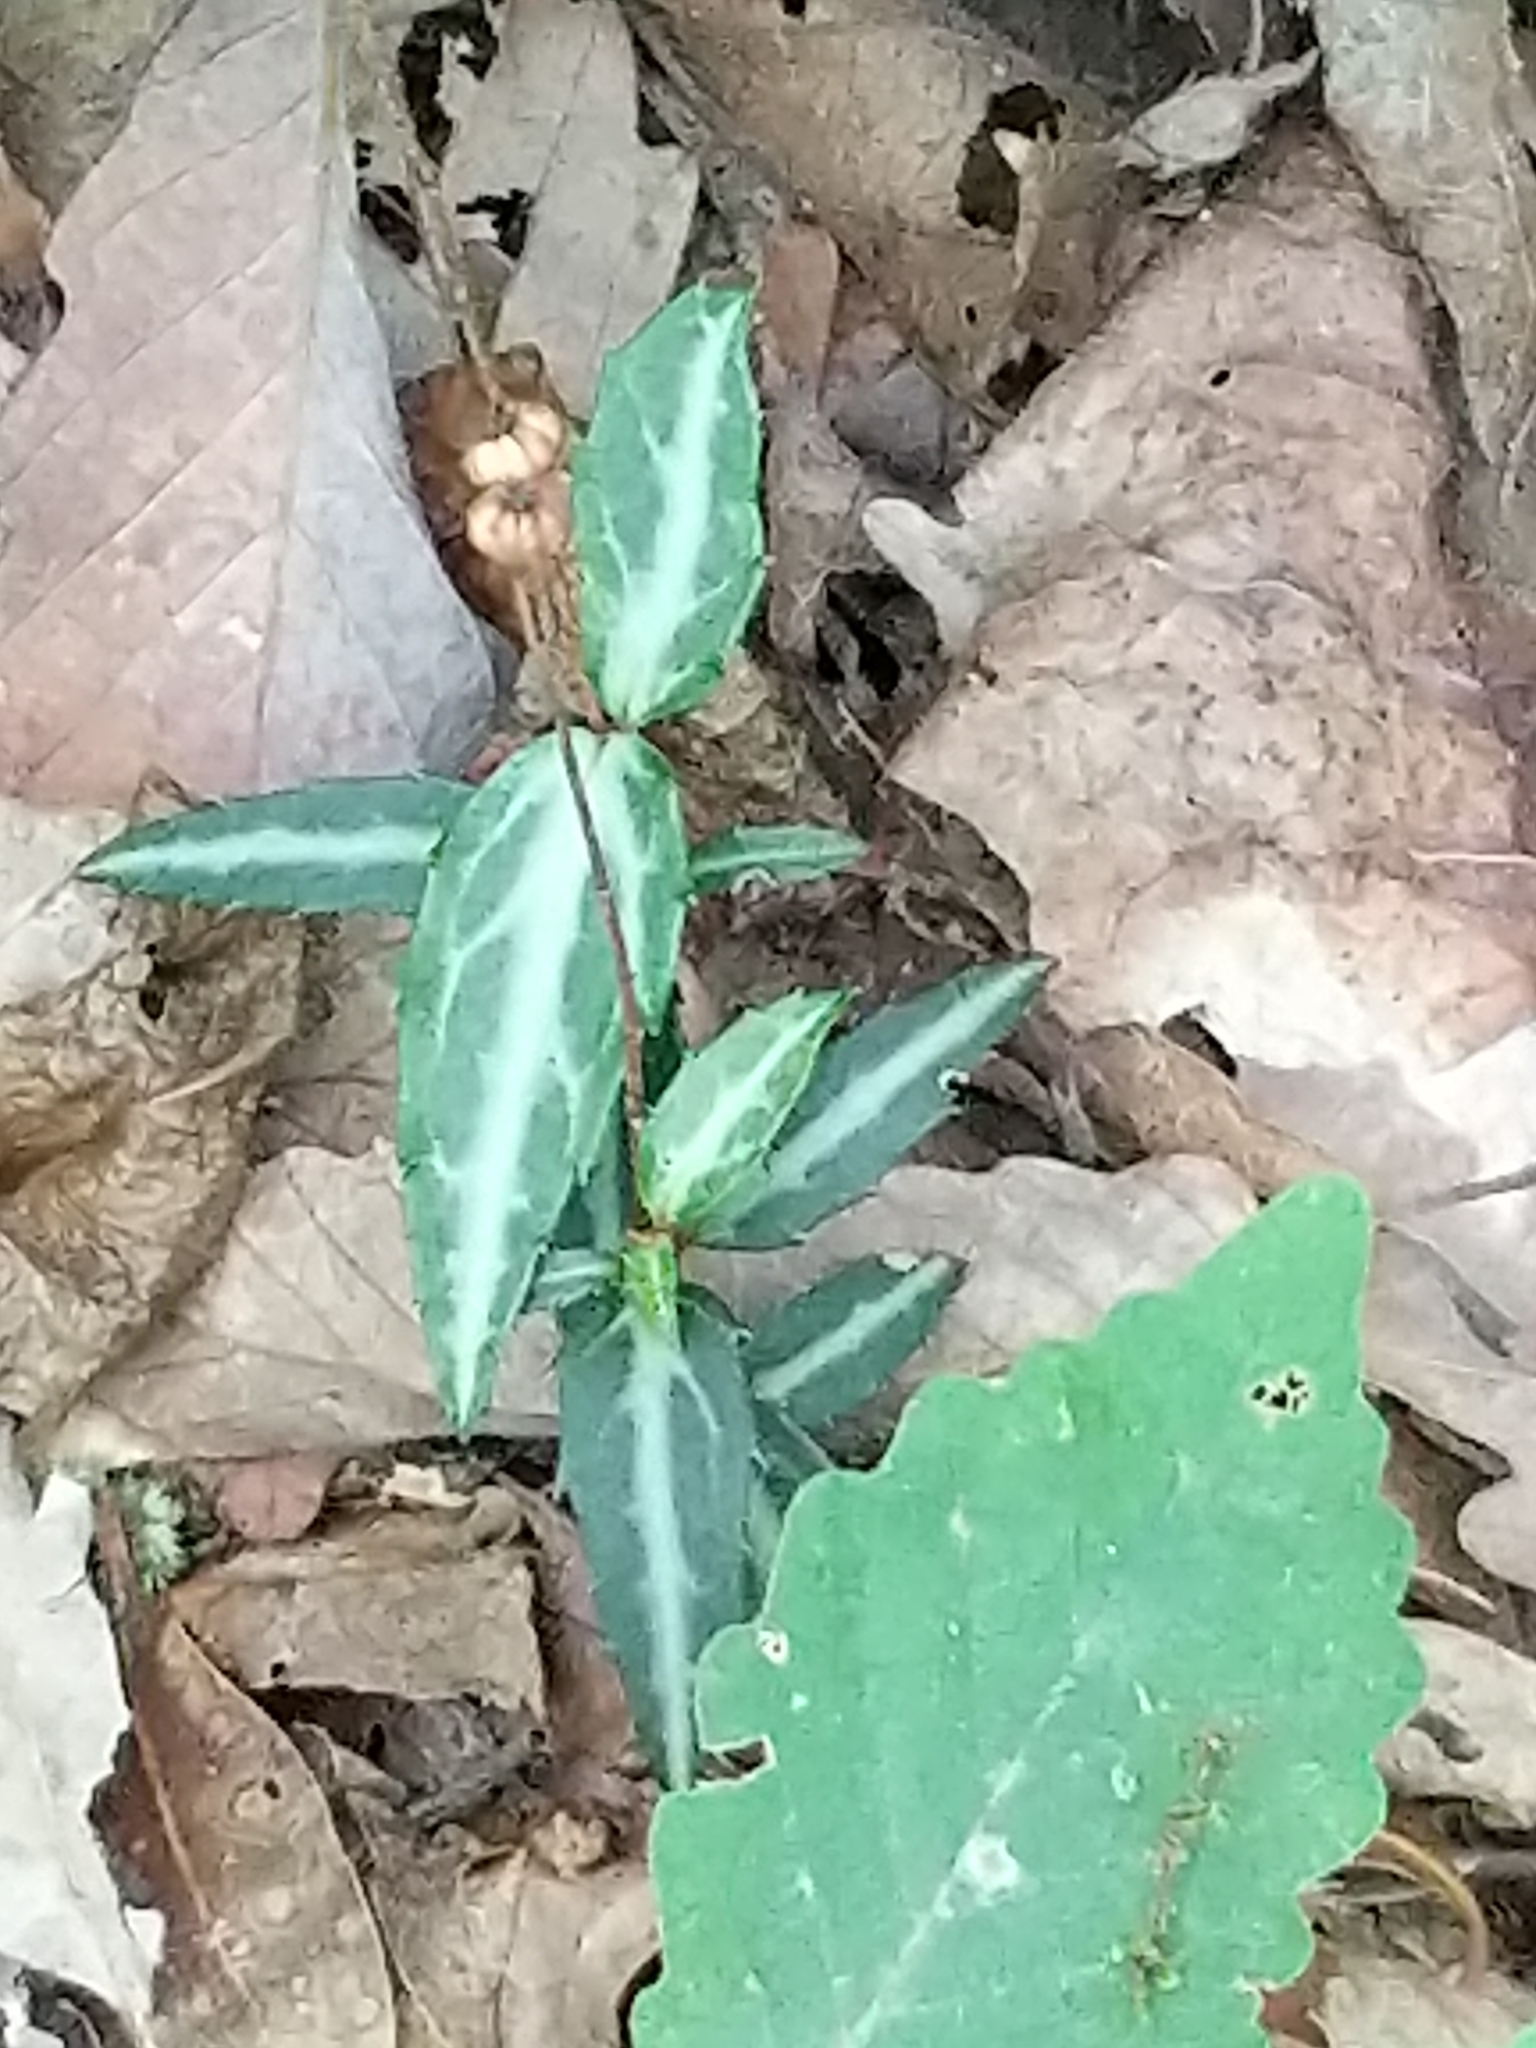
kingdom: Plantae
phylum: Tracheophyta
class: Magnoliopsida
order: Ericales
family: Ericaceae
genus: Chimaphila
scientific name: Chimaphila maculata
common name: Spotted pipsissewa
